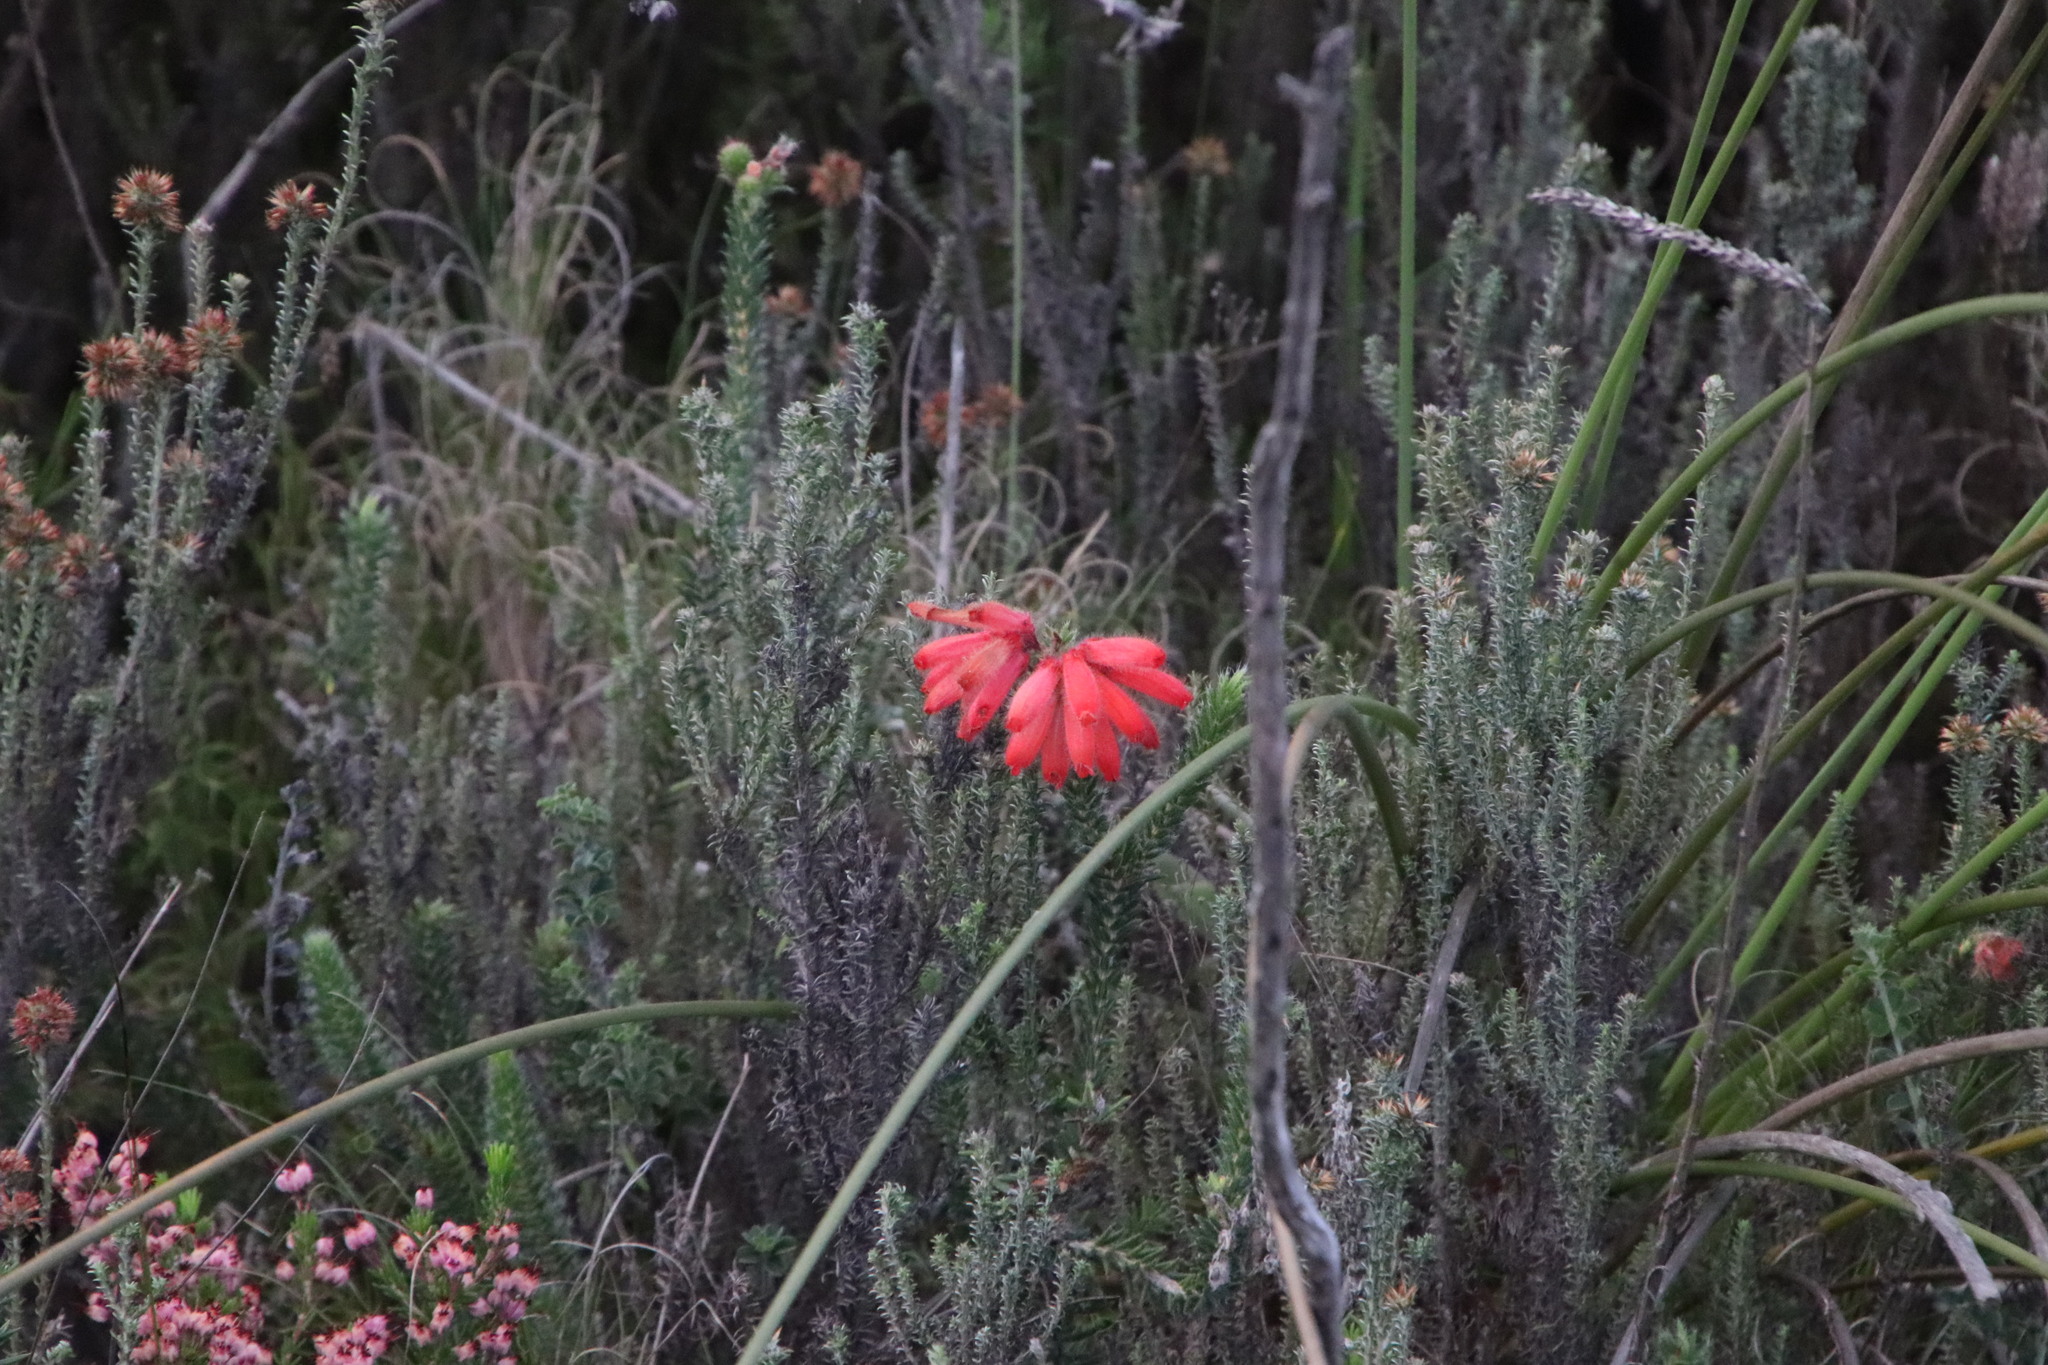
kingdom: Plantae
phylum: Tracheophyta
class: Magnoliopsida
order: Ericales
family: Ericaceae
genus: Erica
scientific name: Erica cerinthoides
